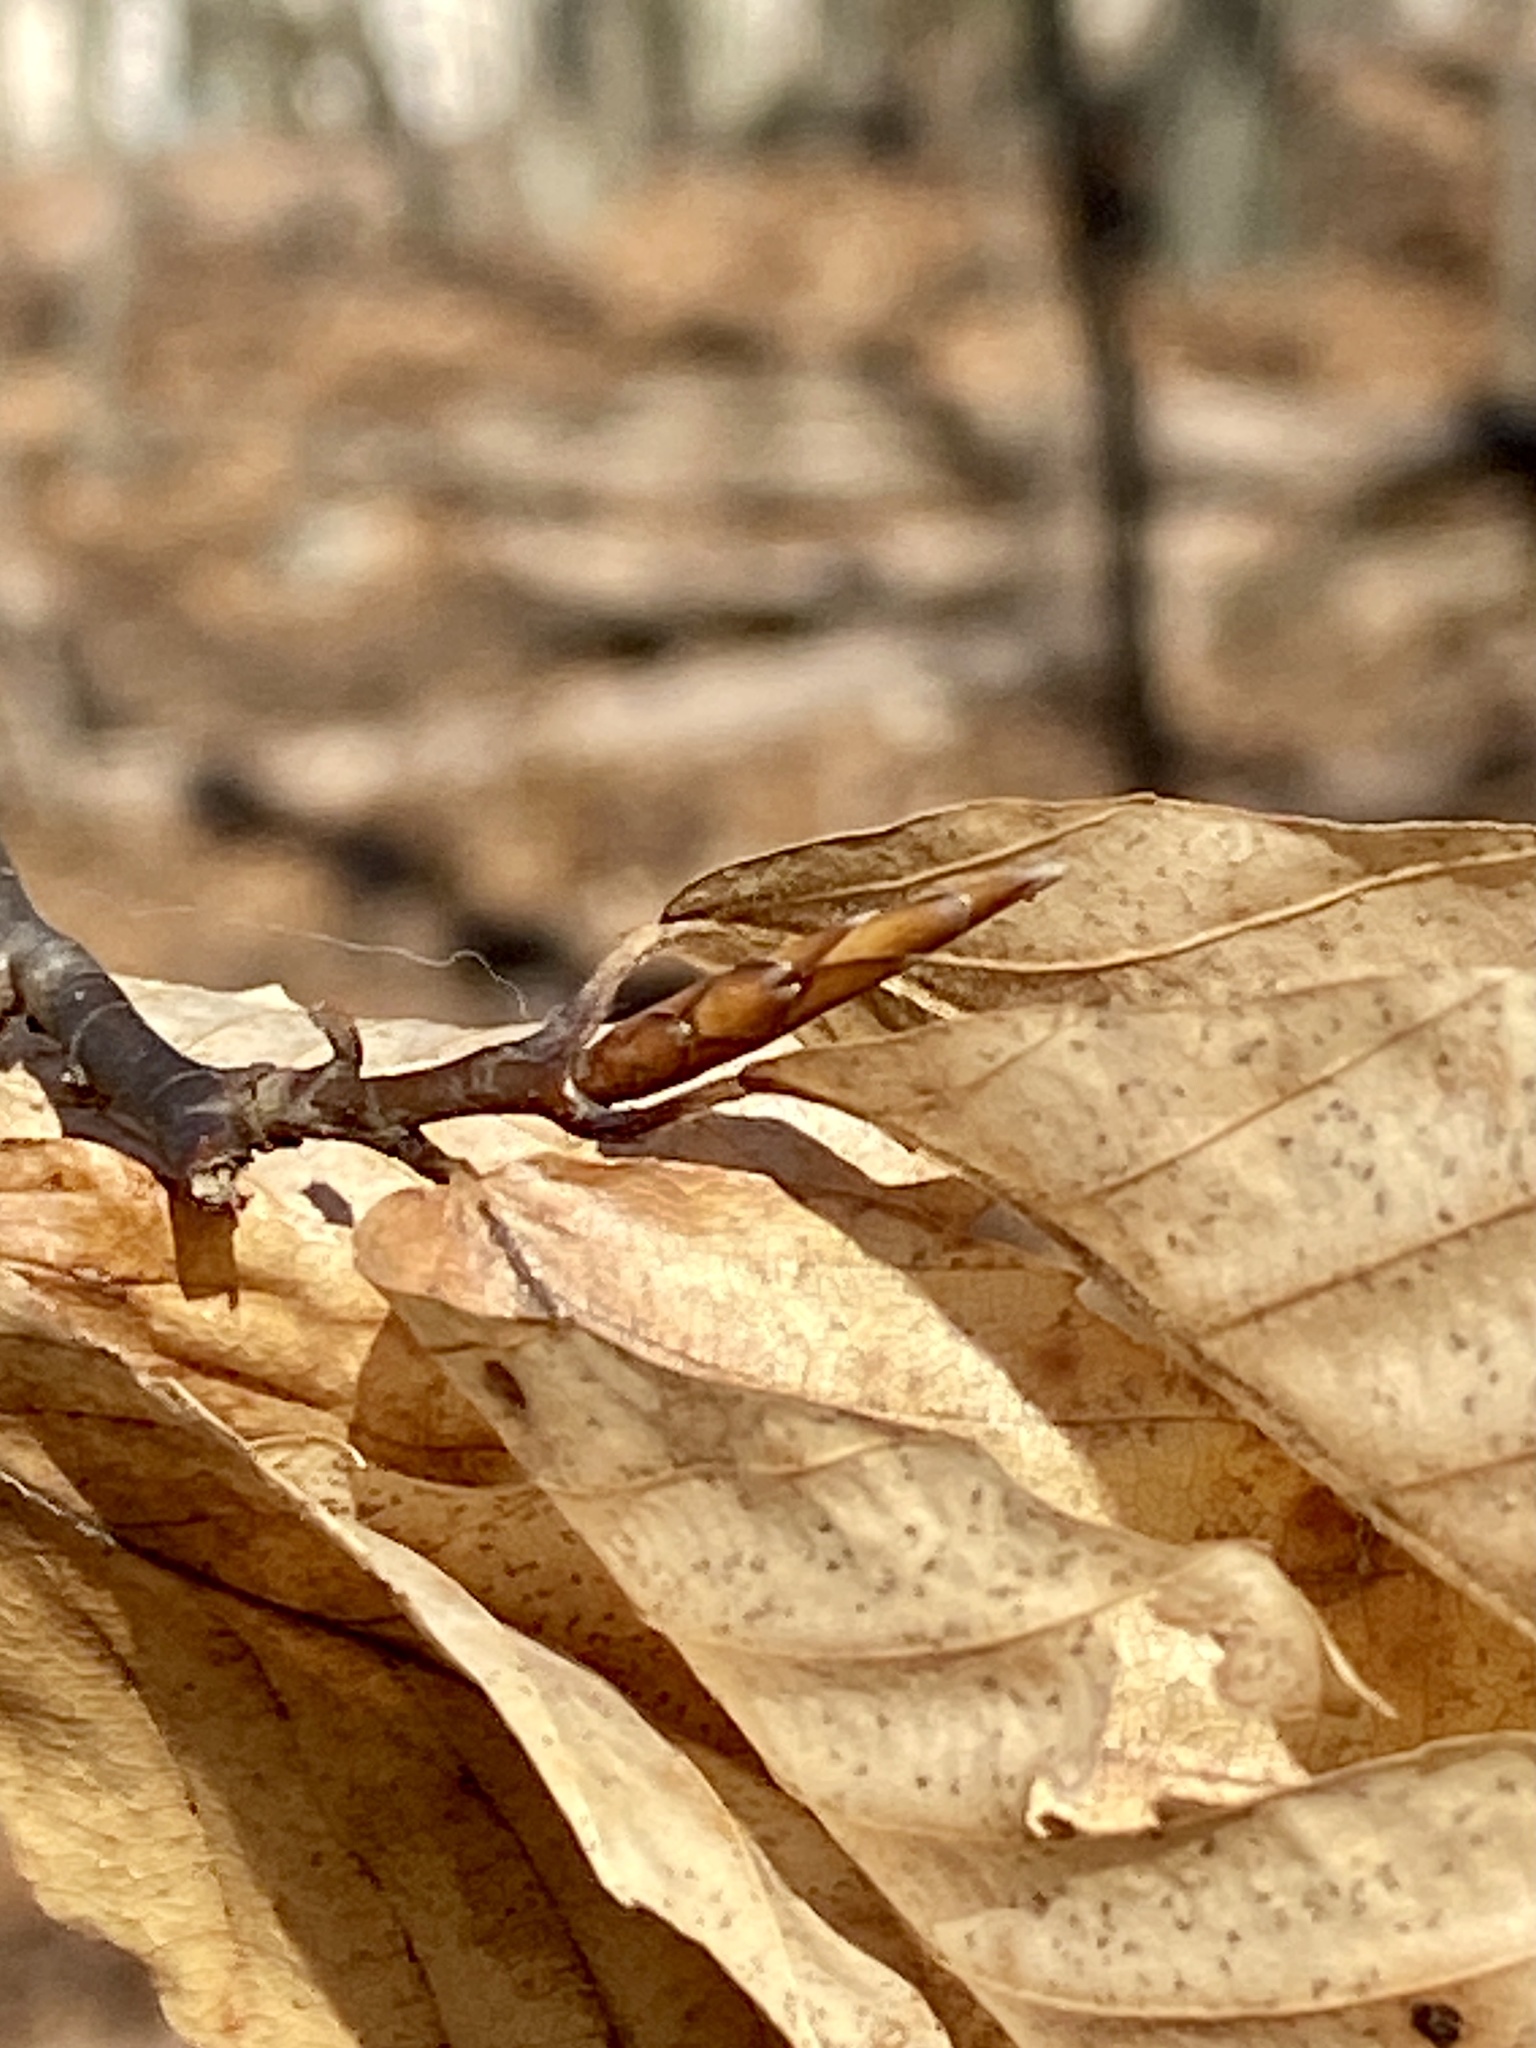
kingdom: Plantae
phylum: Tracheophyta
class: Magnoliopsida
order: Fagales
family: Fagaceae
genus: Fagus
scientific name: Fagus grandifolia
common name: American beech
